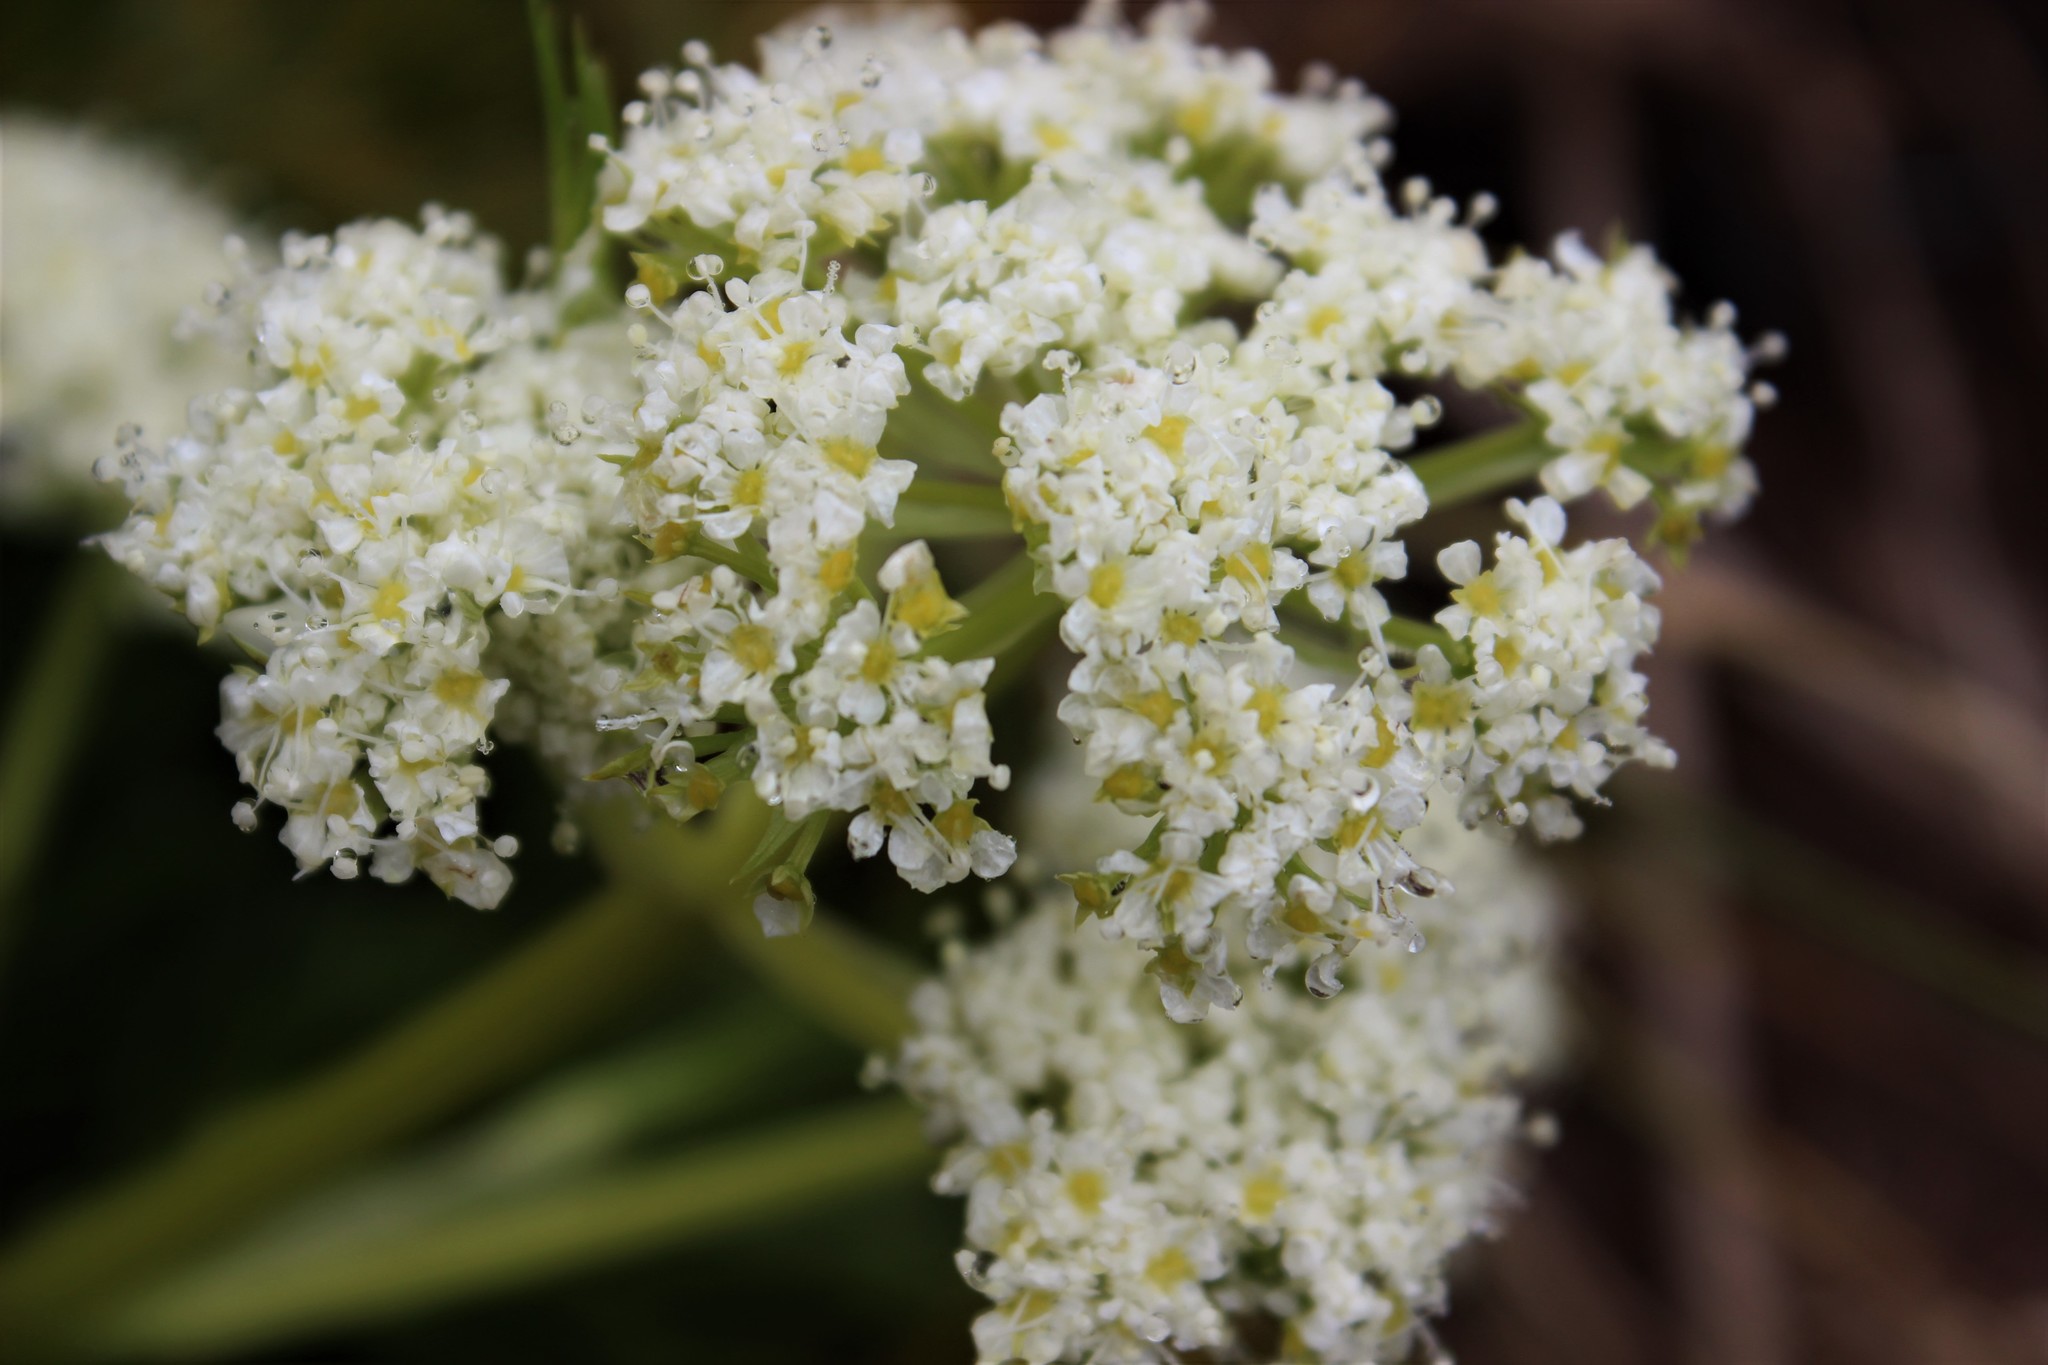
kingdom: Plantae
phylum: Tracheophyta
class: Magnoliopsida
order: Apiales
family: Apiaceae
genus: Aciphylla
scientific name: Aciphylla dissecta
